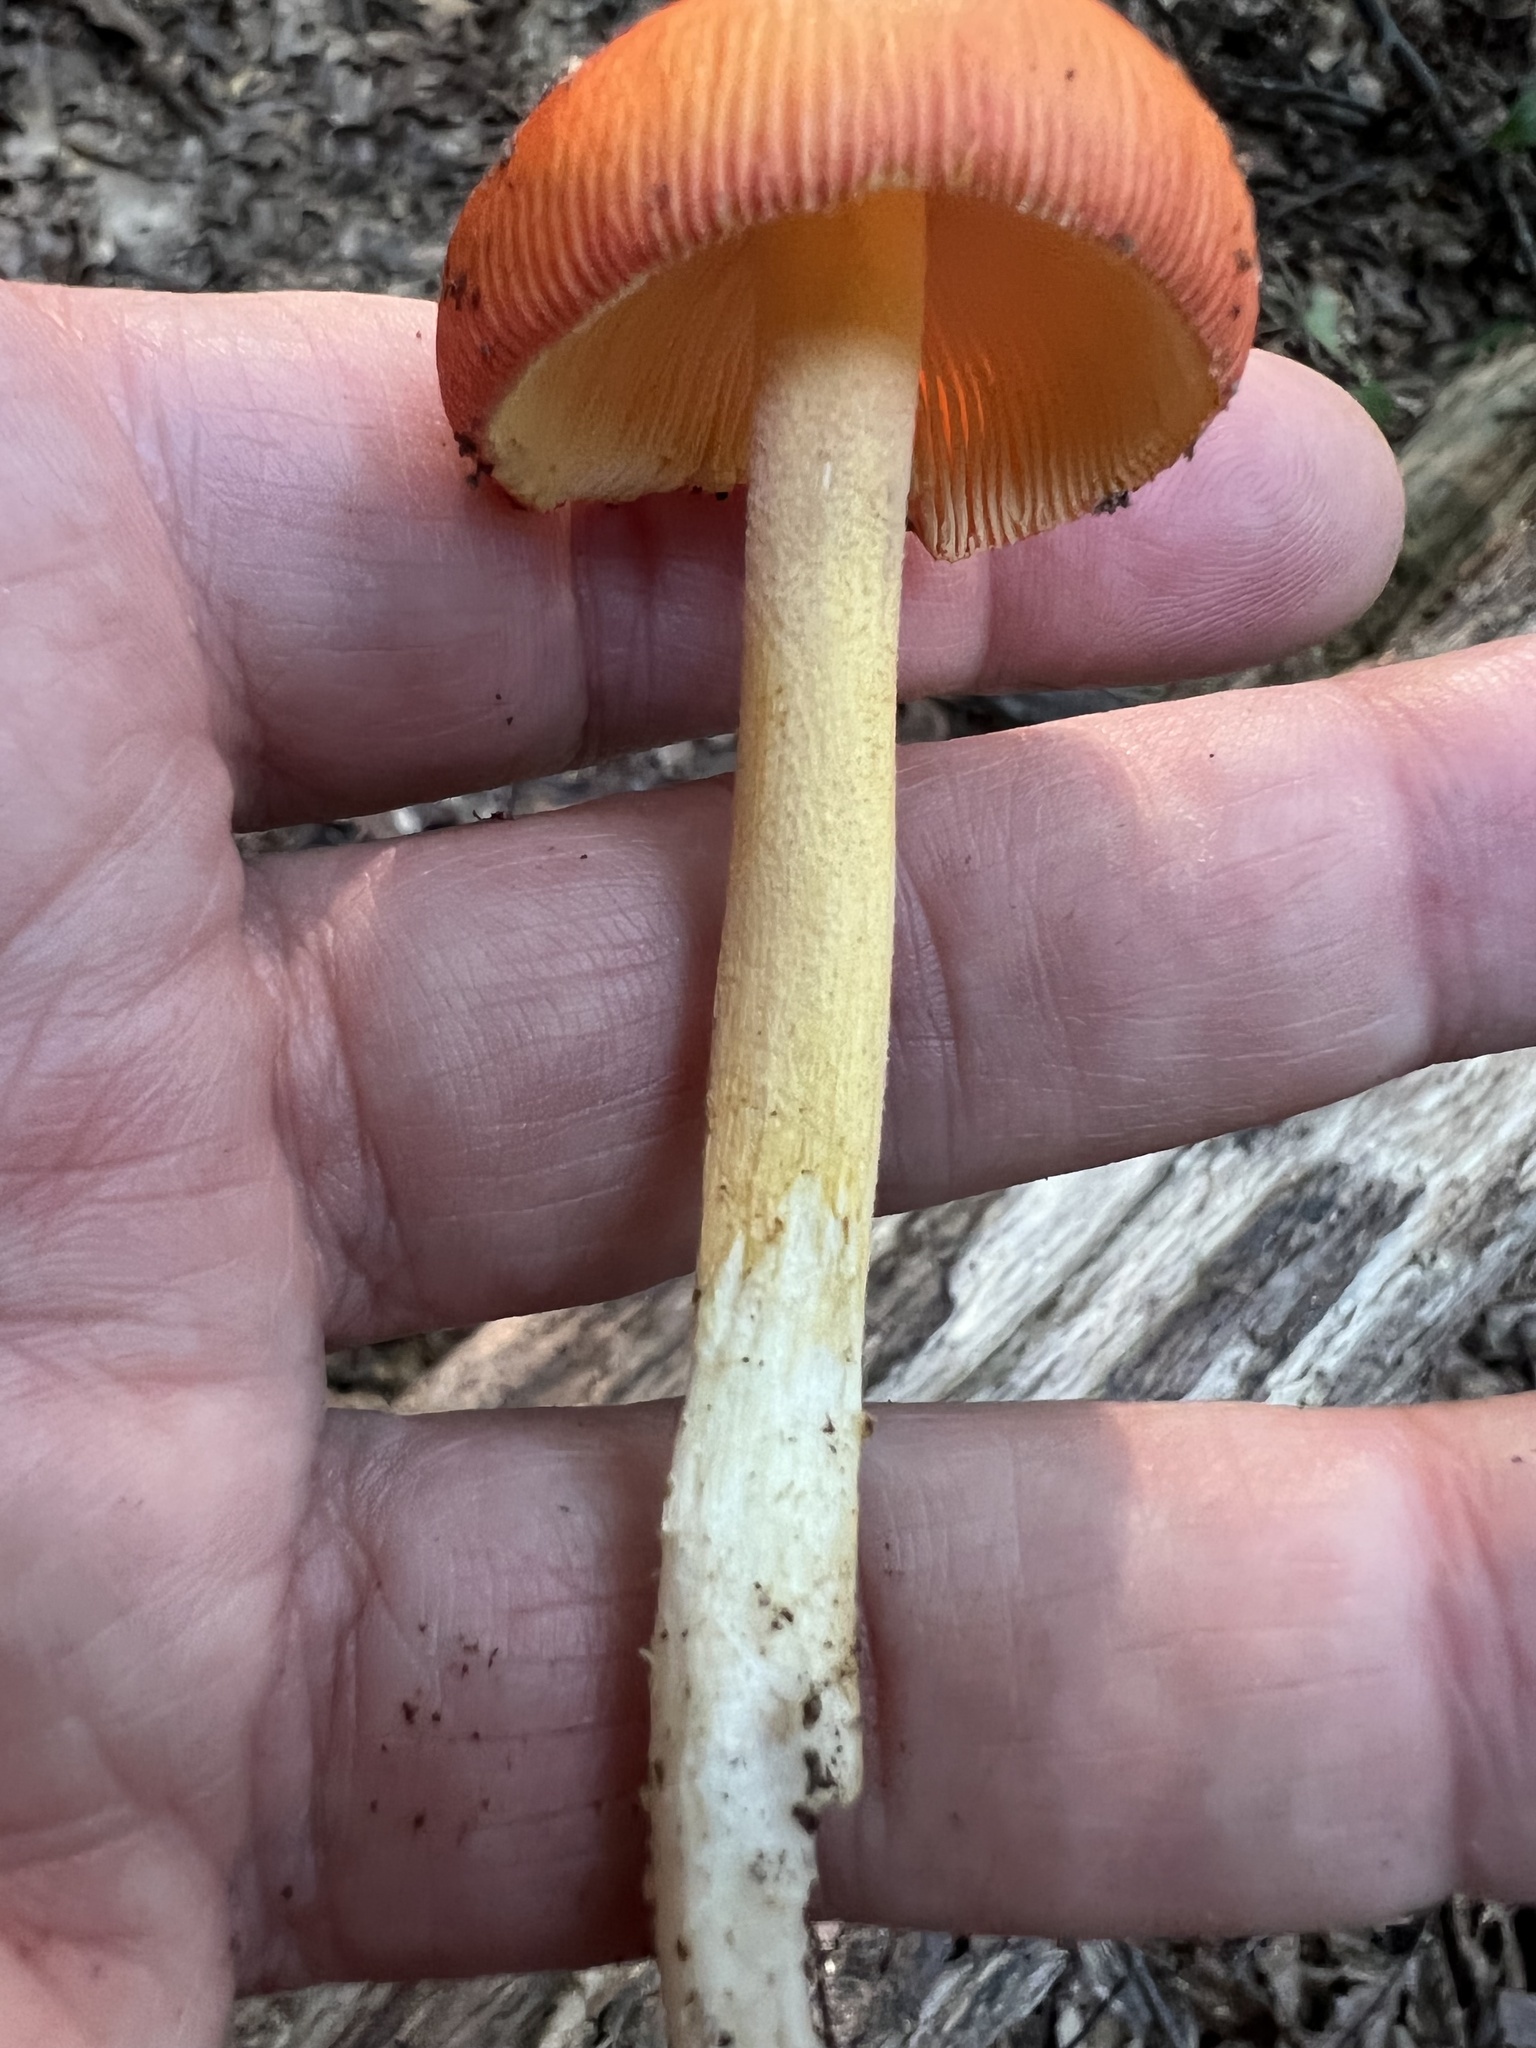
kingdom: Fungi
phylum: Basidiomycota
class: Agaricomycetes
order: Agaricales
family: Amanitaceae
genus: Amanita
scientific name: Amanita parcivolvata
